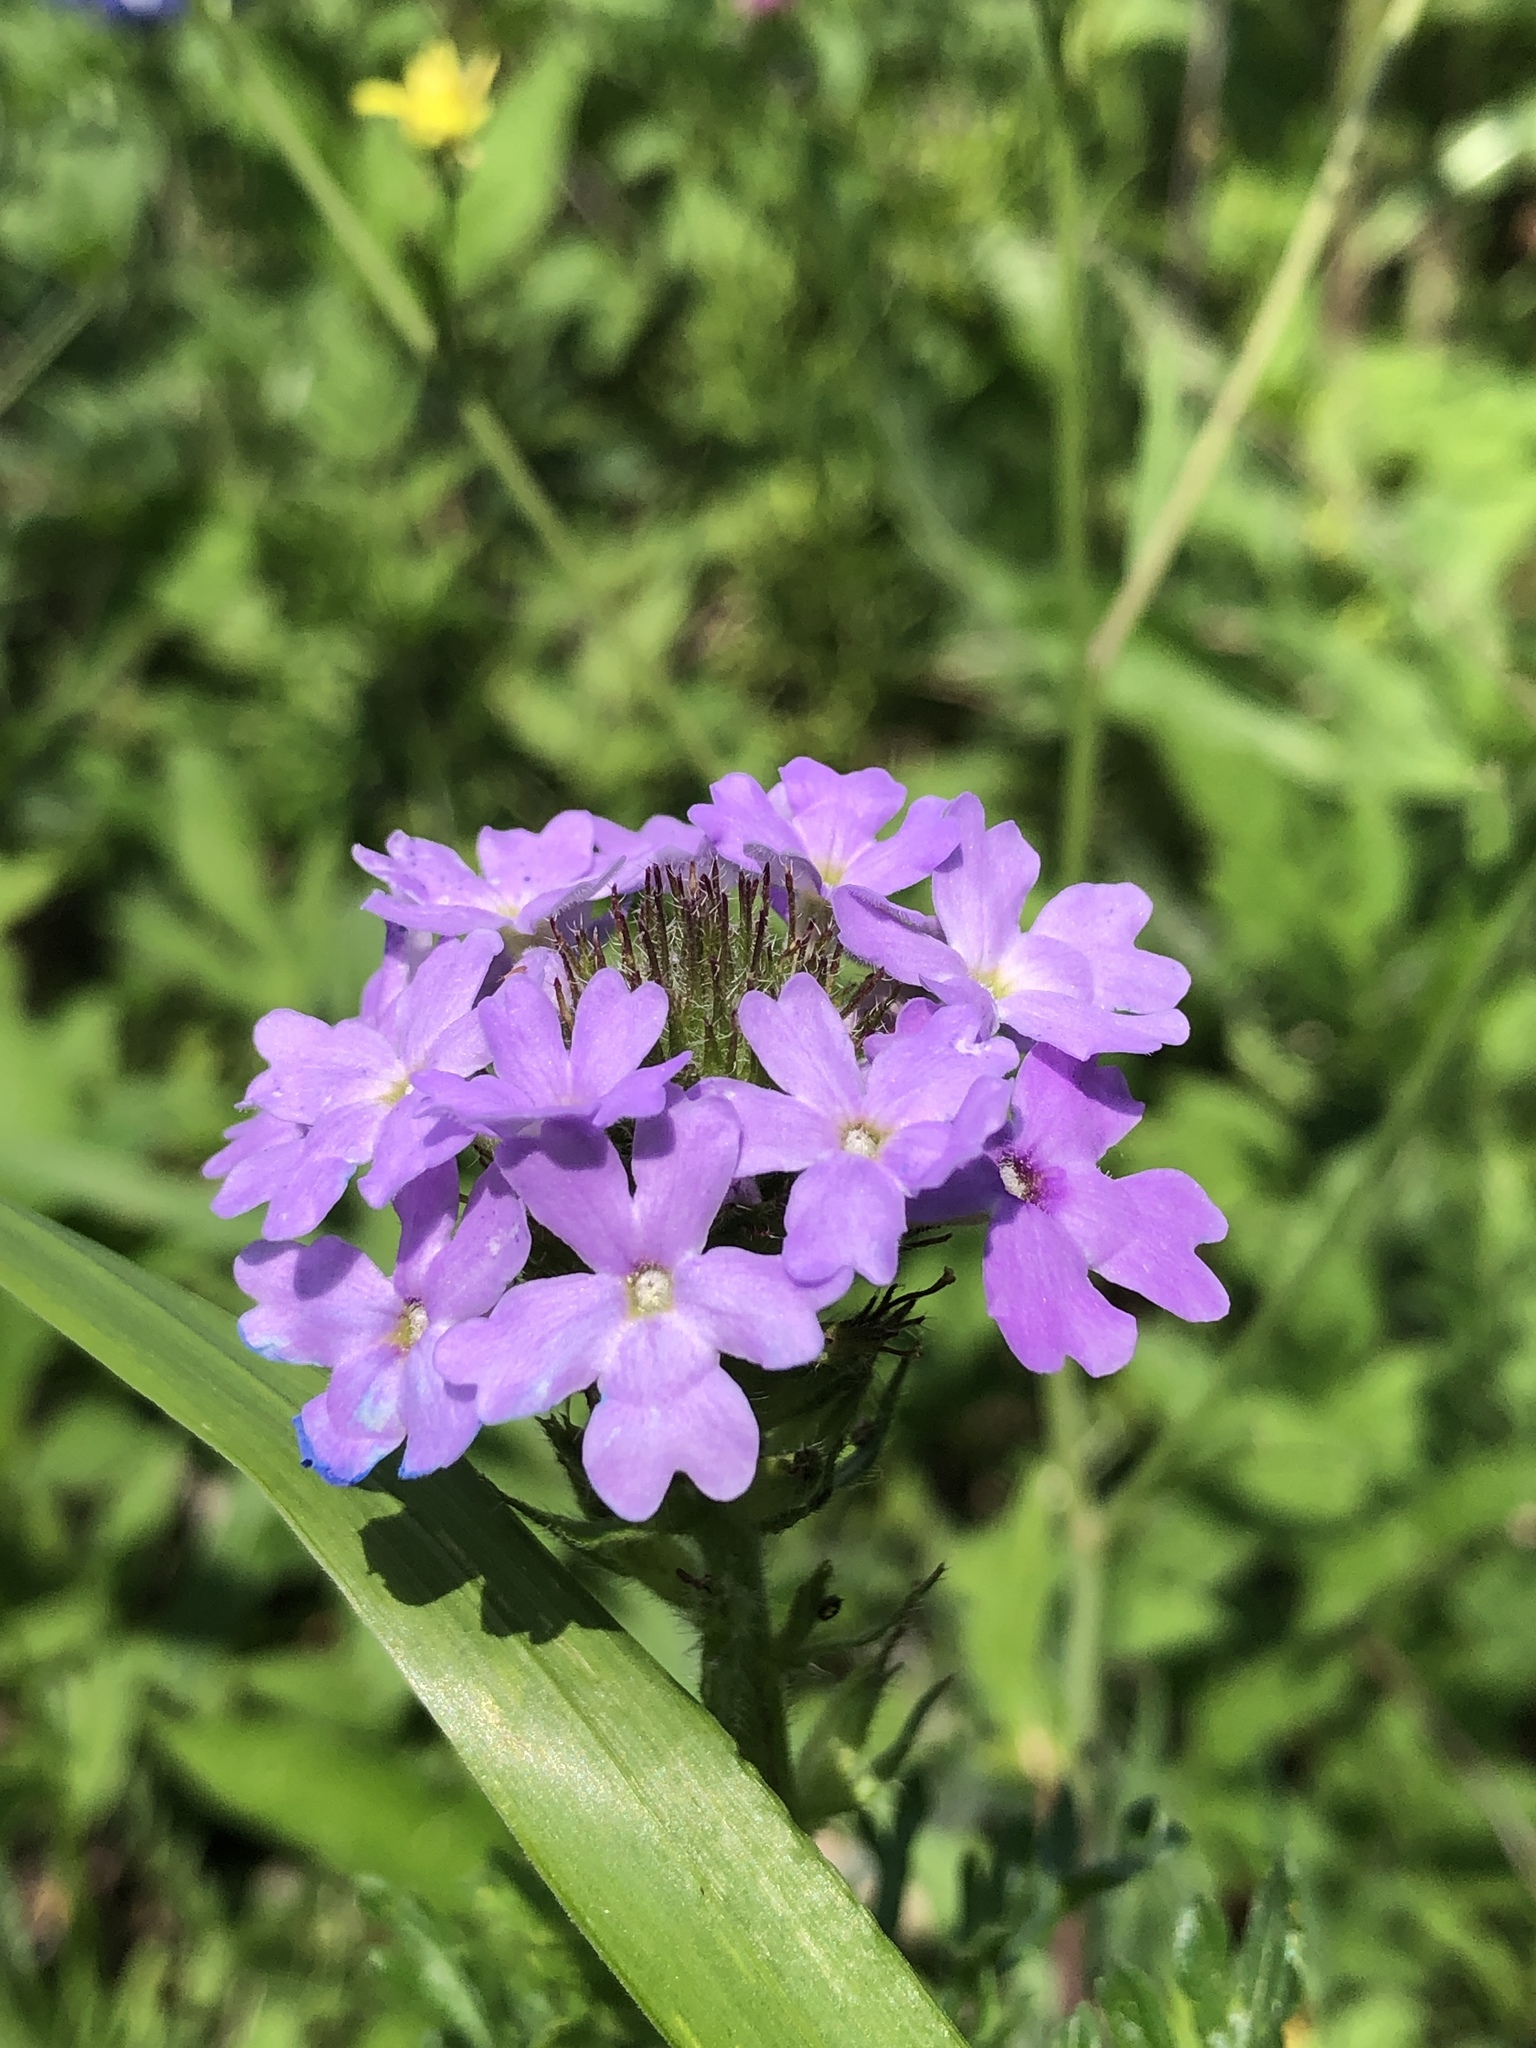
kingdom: Plantae
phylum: Tracheophyta
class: Magnoliopsida
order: Lamiales
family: Verbenaceae
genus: Verbena
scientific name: Verbena bipinnatifida
